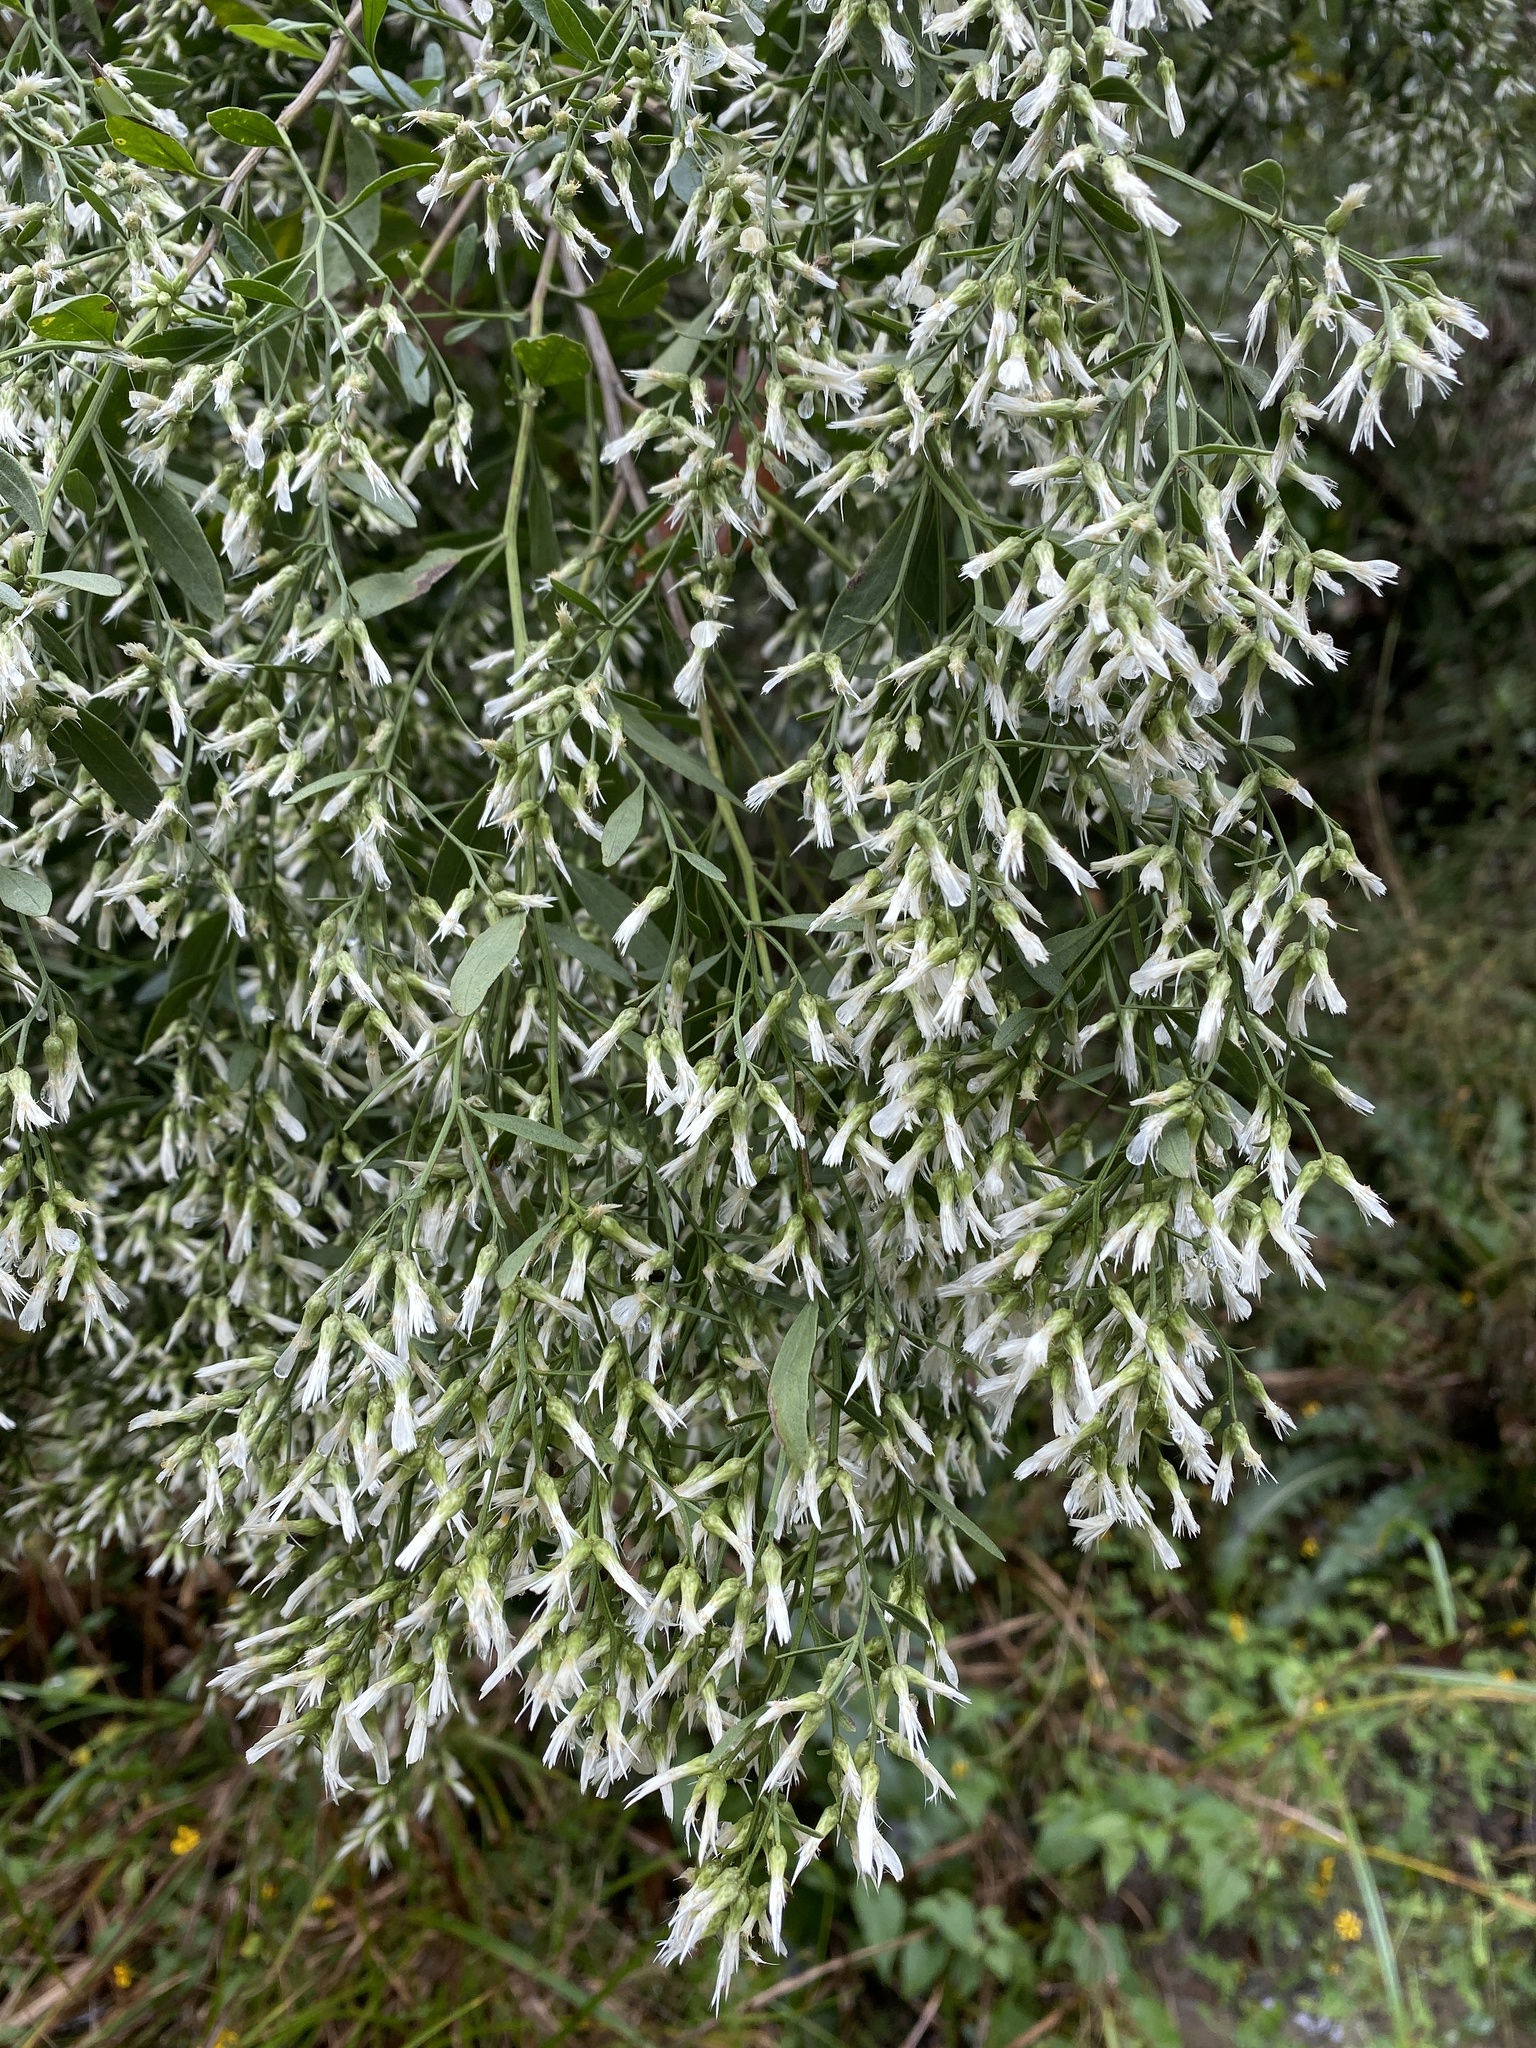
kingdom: Plantae
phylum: Tracheophyta
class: Magnoliopsida
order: Asterales
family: Asteraceae
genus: Baccharis
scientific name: Baccharis halimifolia
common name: Eastern baccharis
